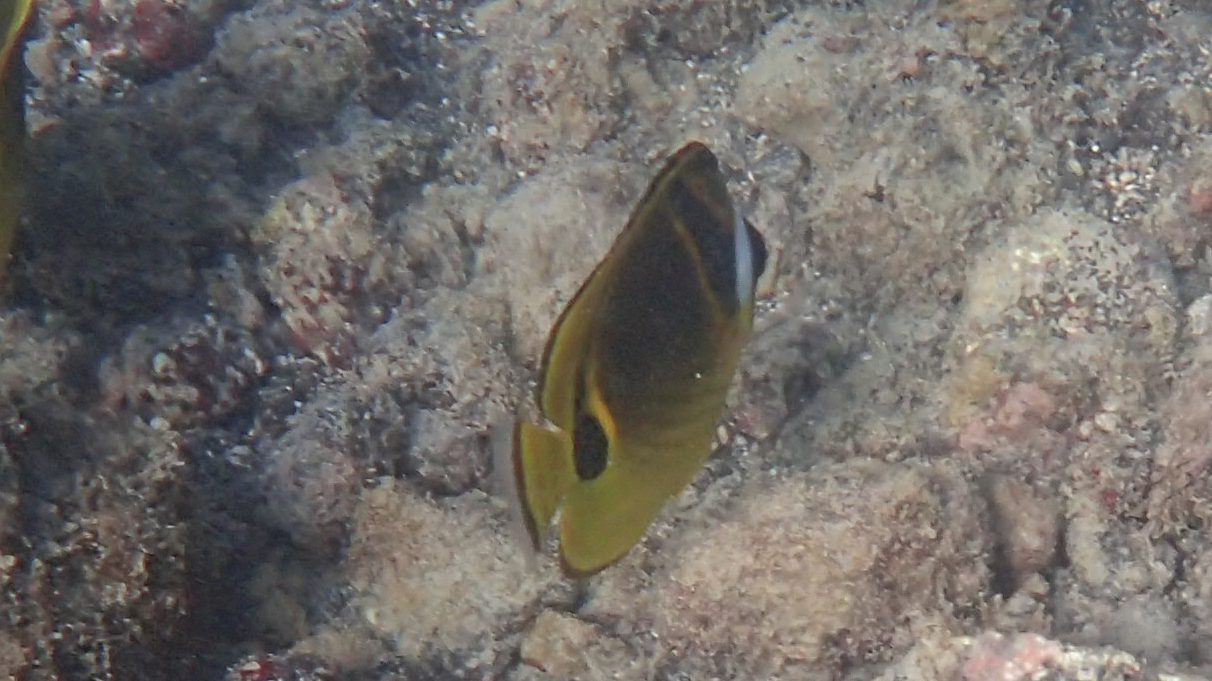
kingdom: Animalia
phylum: Chordata
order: Perciformes
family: Chaetodontidae
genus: Chaetodon
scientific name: Chaetodon lunula
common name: Raccoon butterflyfish
